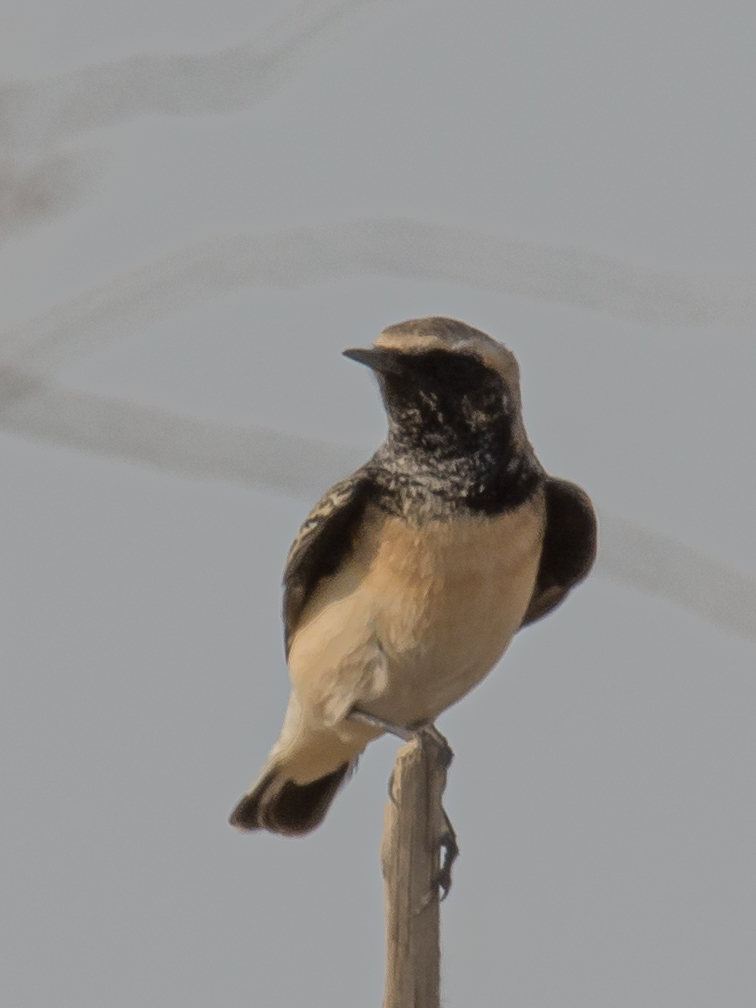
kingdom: Animalia
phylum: Chordata
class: Aves
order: Passeriformes
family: Muscicapidae
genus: Oenanthe
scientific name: Oenanthe pleschanka
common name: Pied wheatear
